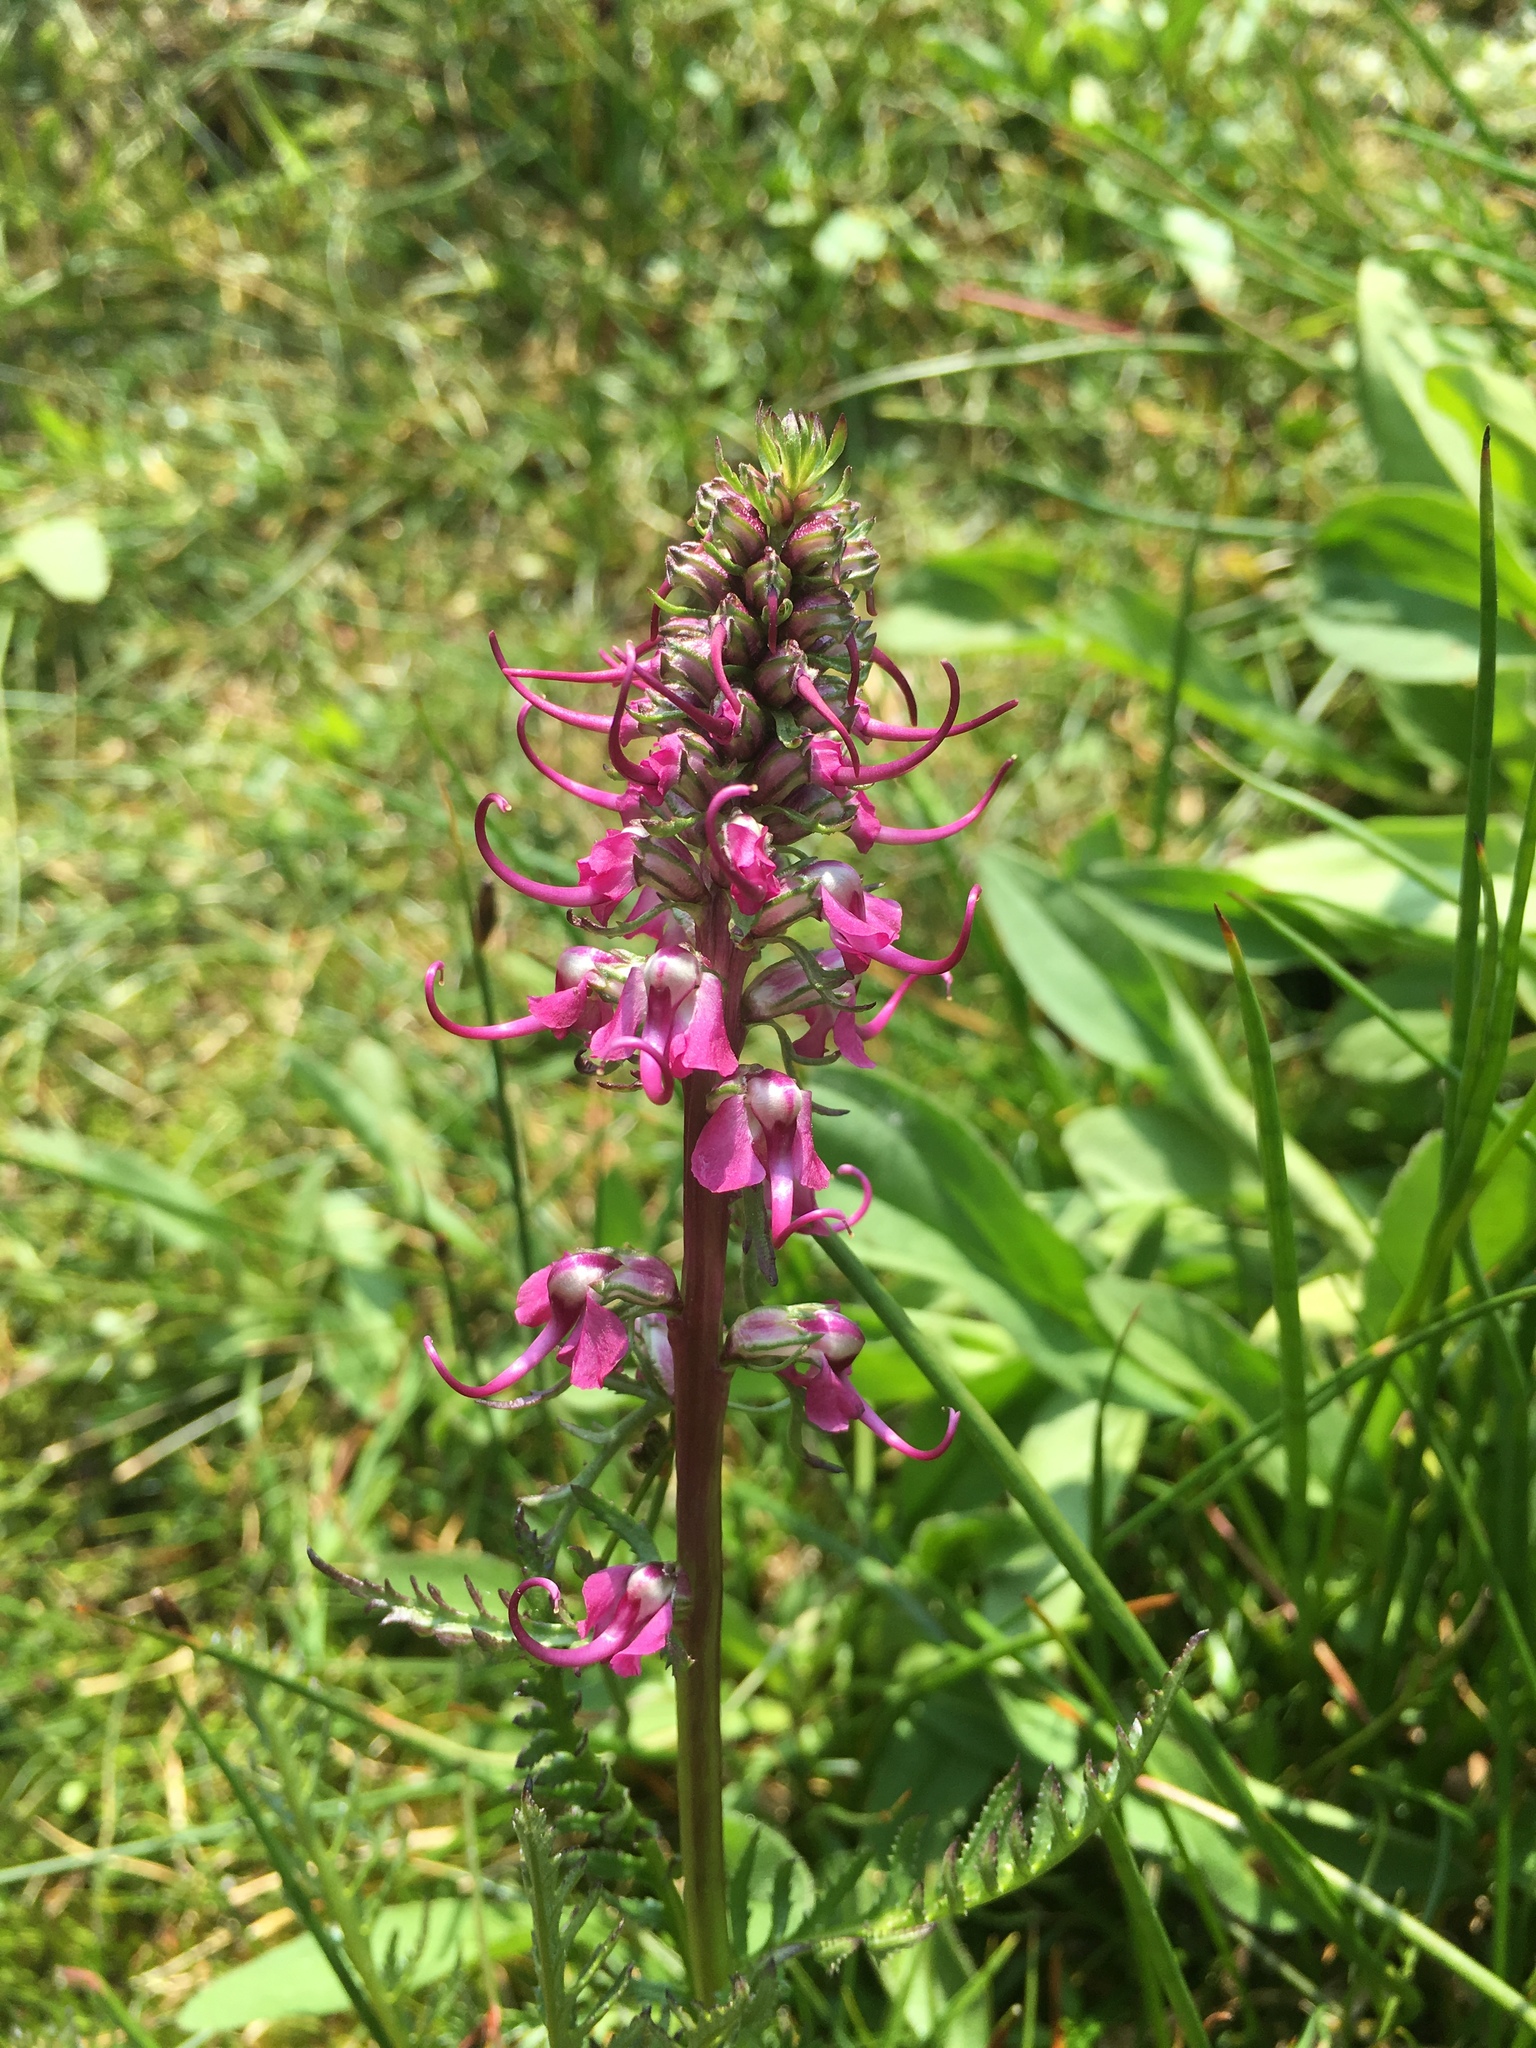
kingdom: Plantae
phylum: Tracheophyta
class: Magnoliopsida
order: Lamiales
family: Orobanchaceae
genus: Pedicularis
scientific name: Pedicularis groenlandica
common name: Elephant's-head
